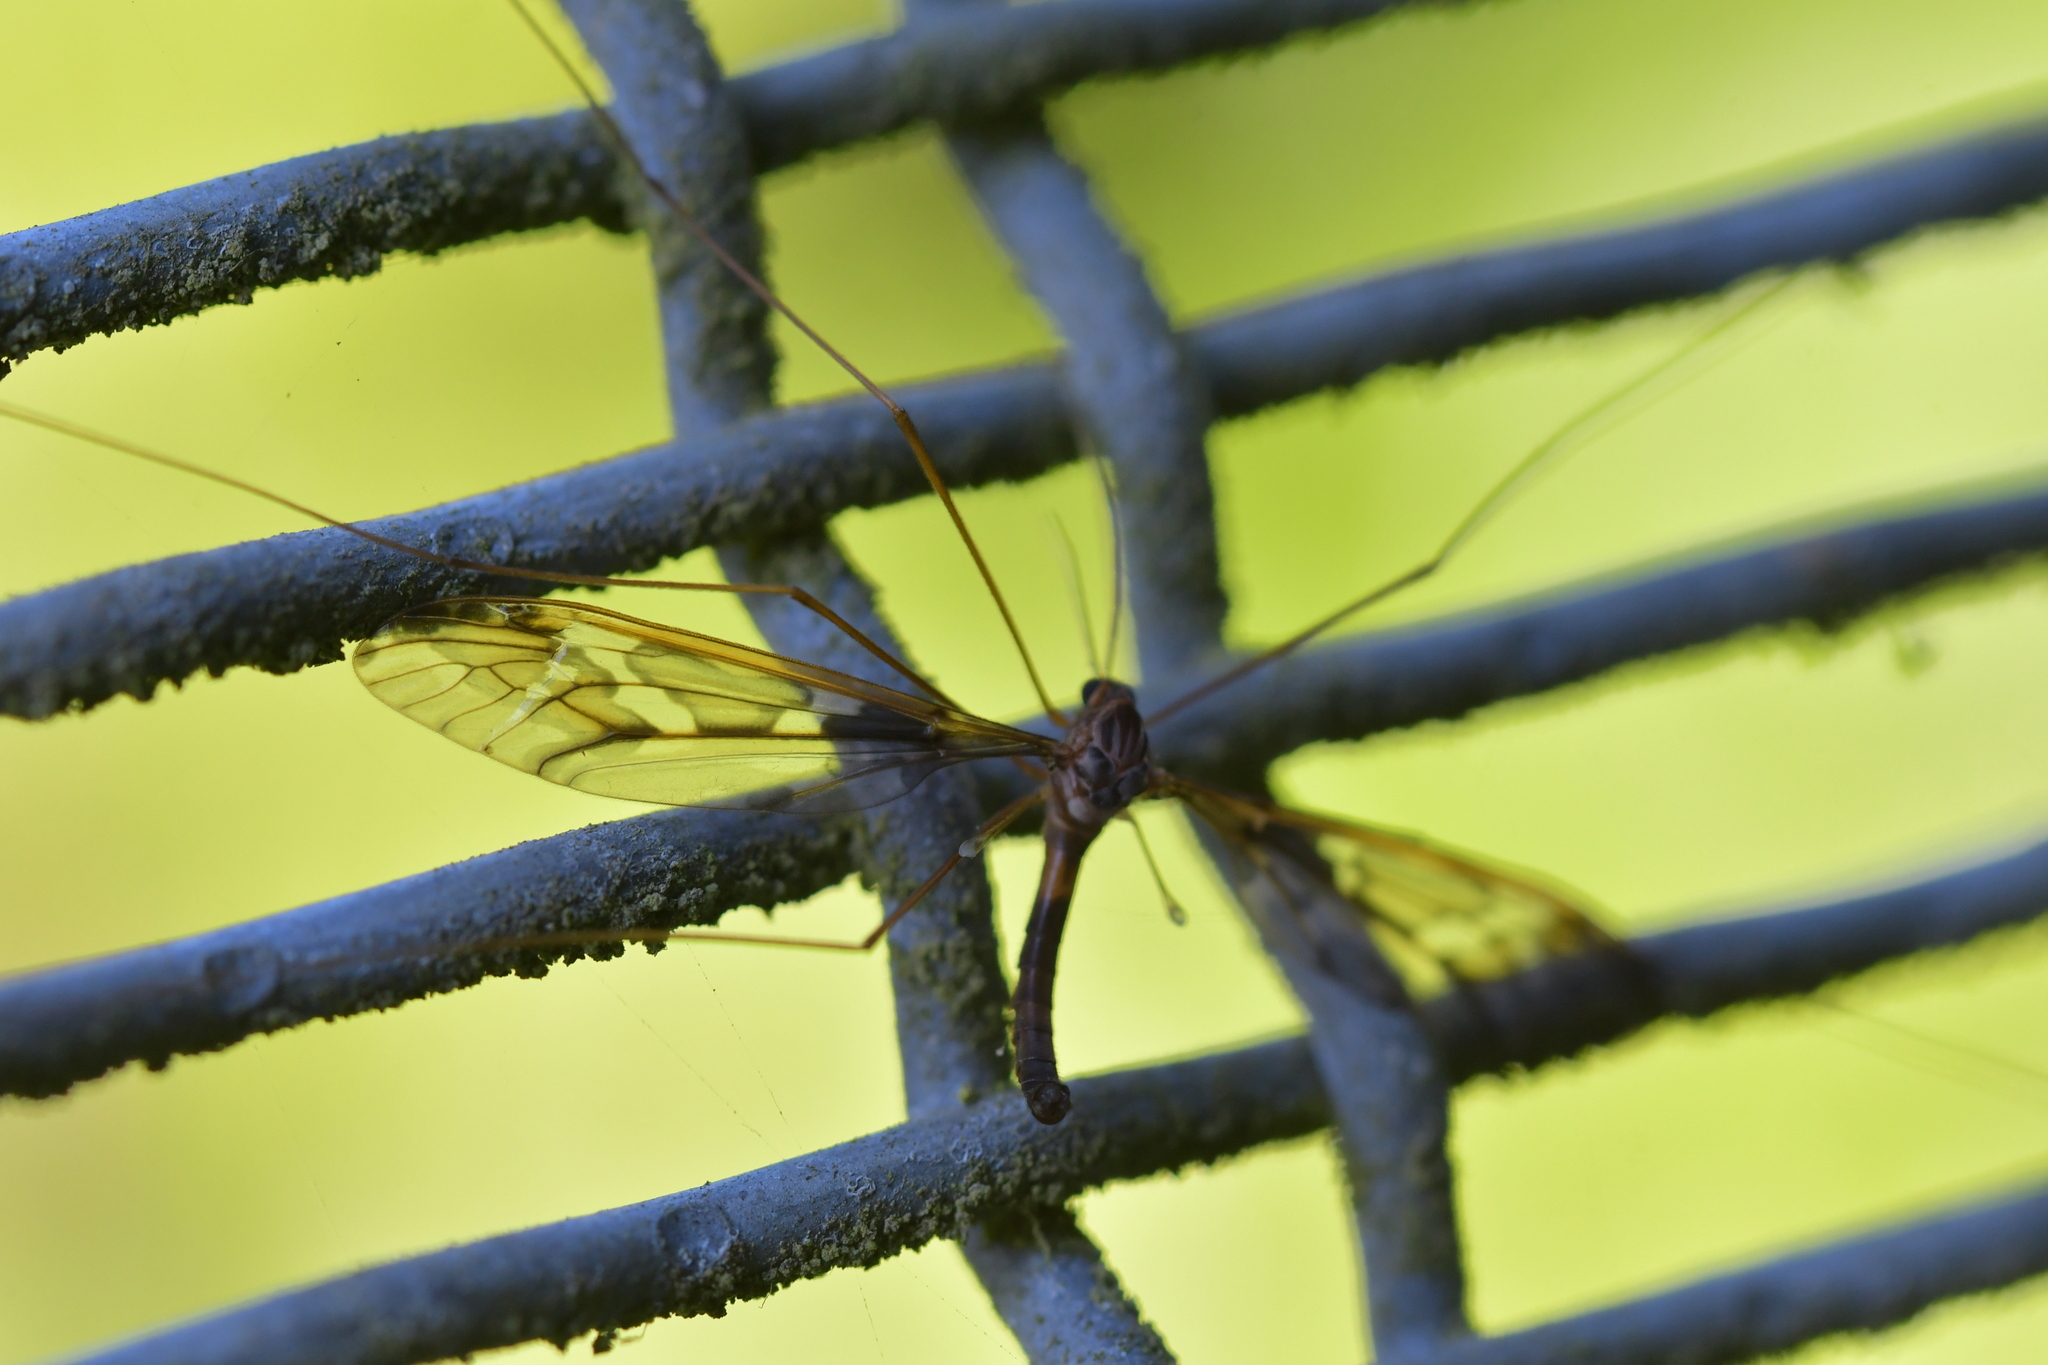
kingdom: Animalia
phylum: Arthropoda
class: Insecta
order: Diptera
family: Tipulidae
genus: Leptotarsus
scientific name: Leptotarsus binotatus
